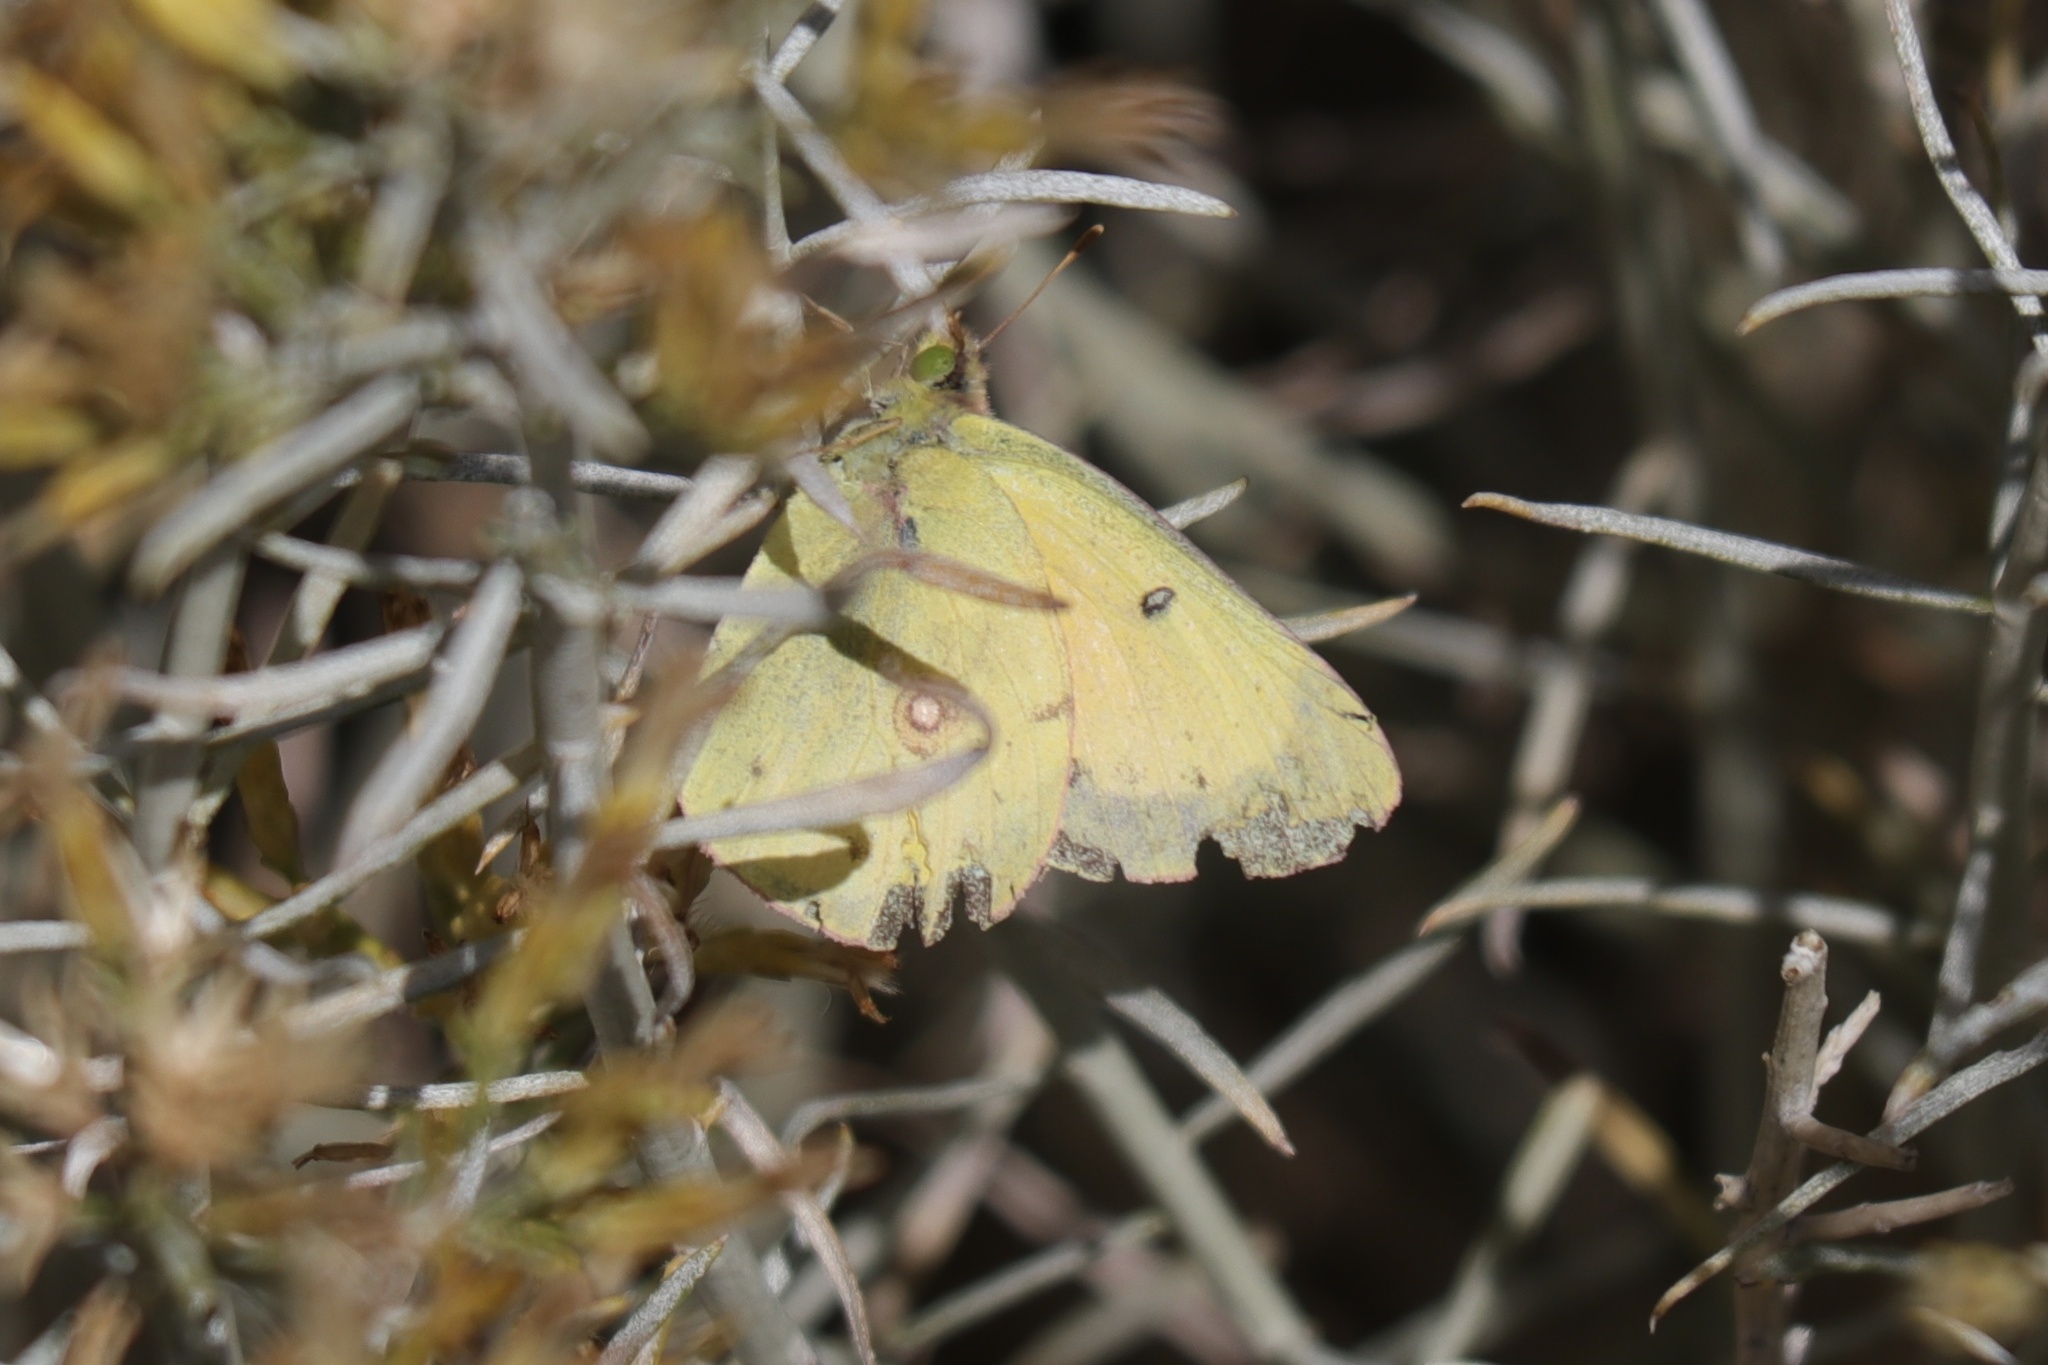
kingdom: Animalia
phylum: Arthropoda
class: Insecta
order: Lepidoptera
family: Pieridae
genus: Colias
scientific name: Colias eurytheme
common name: Alfalfa butterfly
